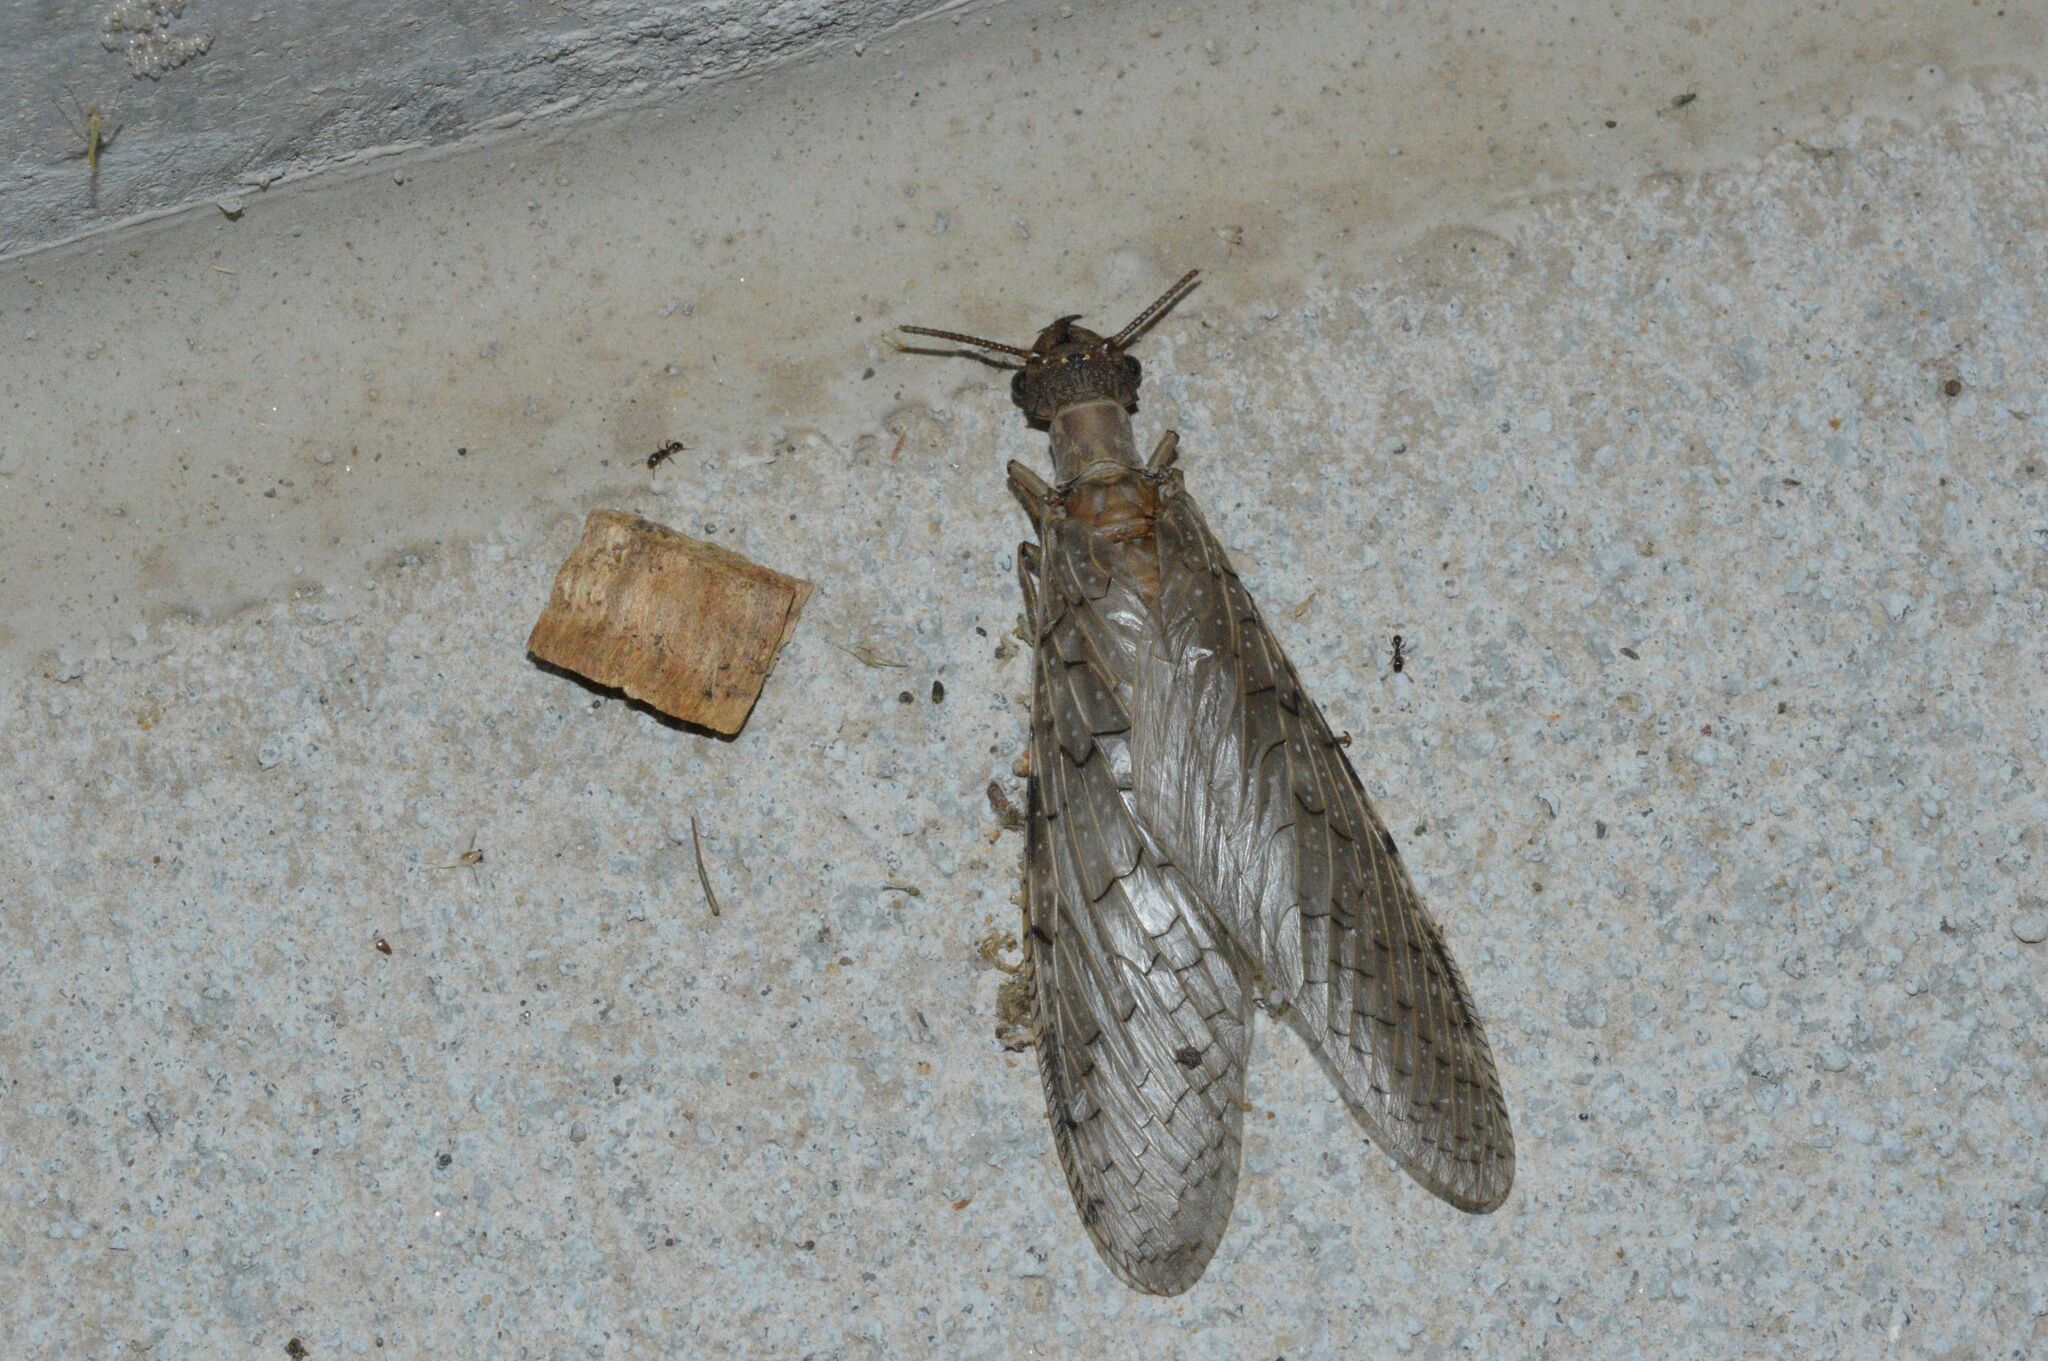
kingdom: Animalia
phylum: Arthropoda
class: Insecta
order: Megaloptera
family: Corydalidae
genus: Corydalus
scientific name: Corydalus cornutus
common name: Dobsonfly
